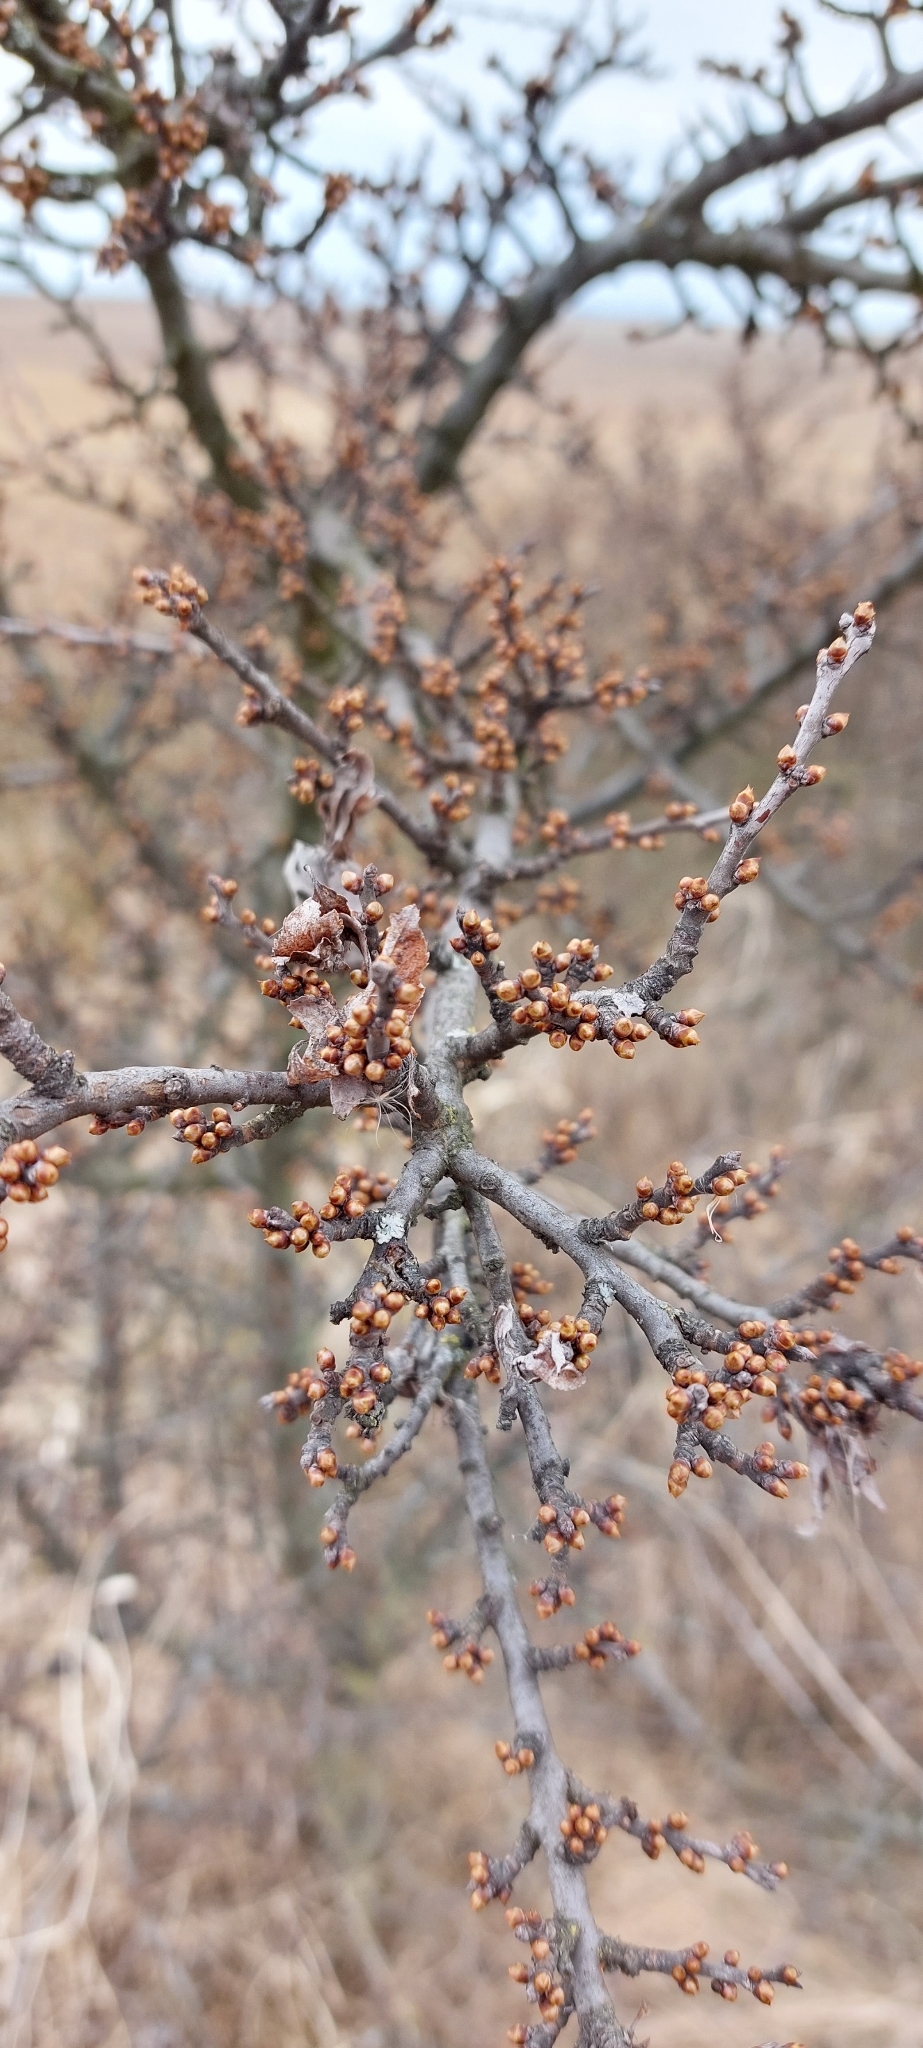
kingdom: Plantae
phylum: Tracheophyta
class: Magnoliopsida
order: Rosales
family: Rosaceae
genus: Prunus
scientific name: Prunus spinosa
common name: Blackthorn
